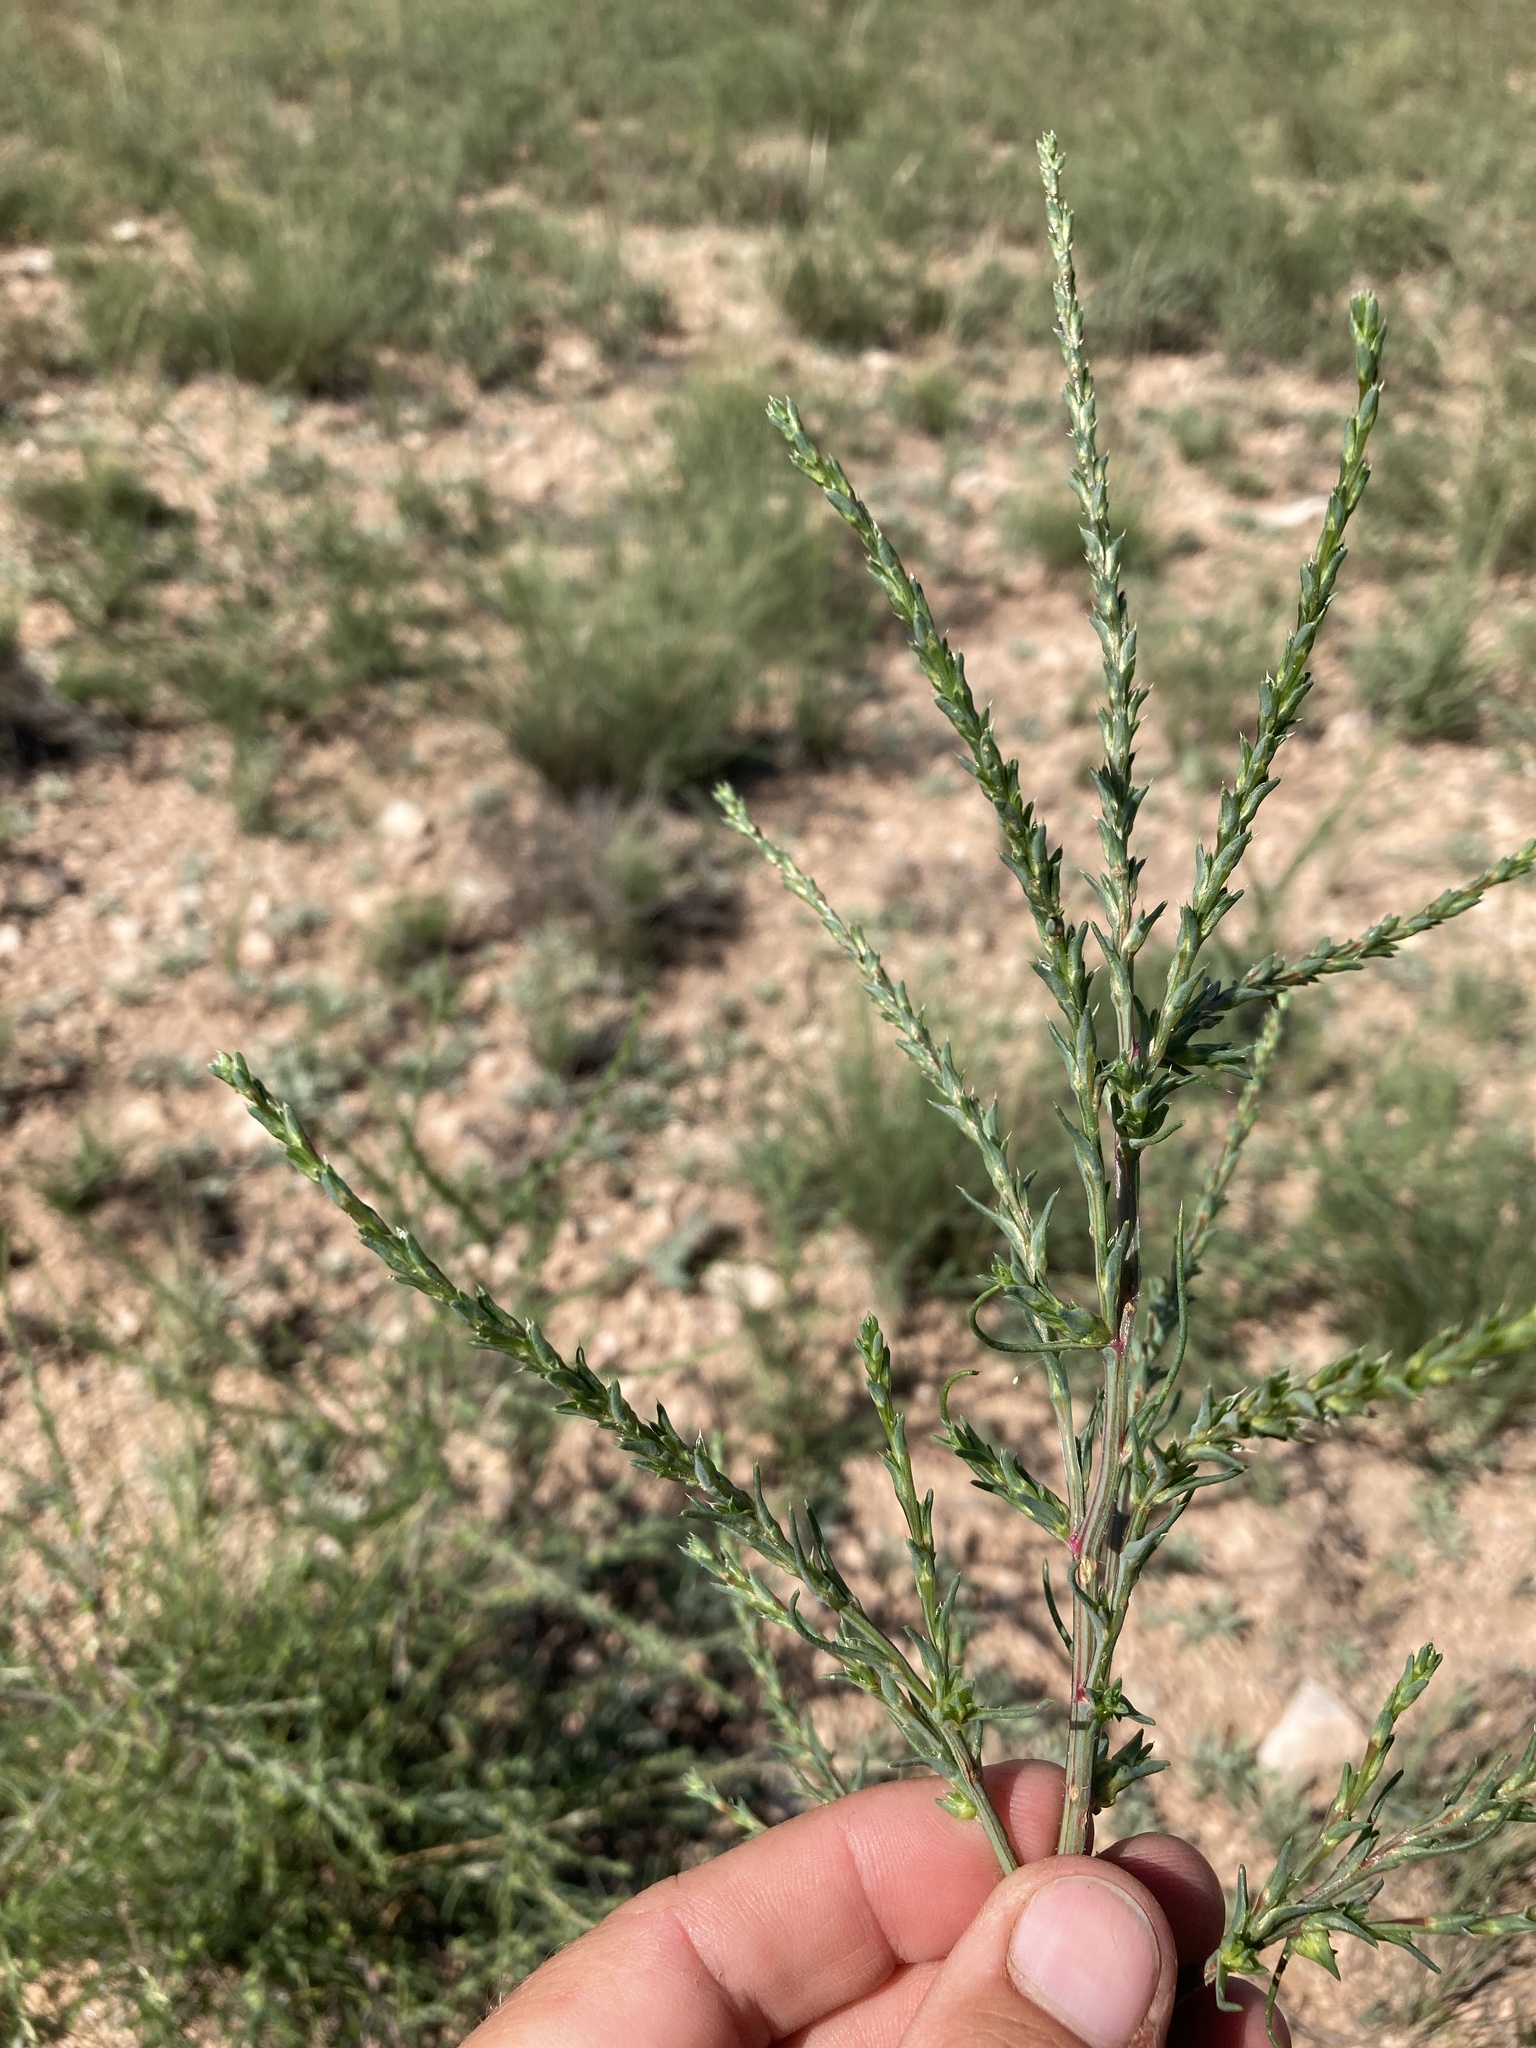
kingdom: Plantae
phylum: Tracheophyta
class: Magnoliopsida
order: Caryophyllales
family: Amaranthaceae
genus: Salsola
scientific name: Salsola collina
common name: Tumbleweed
